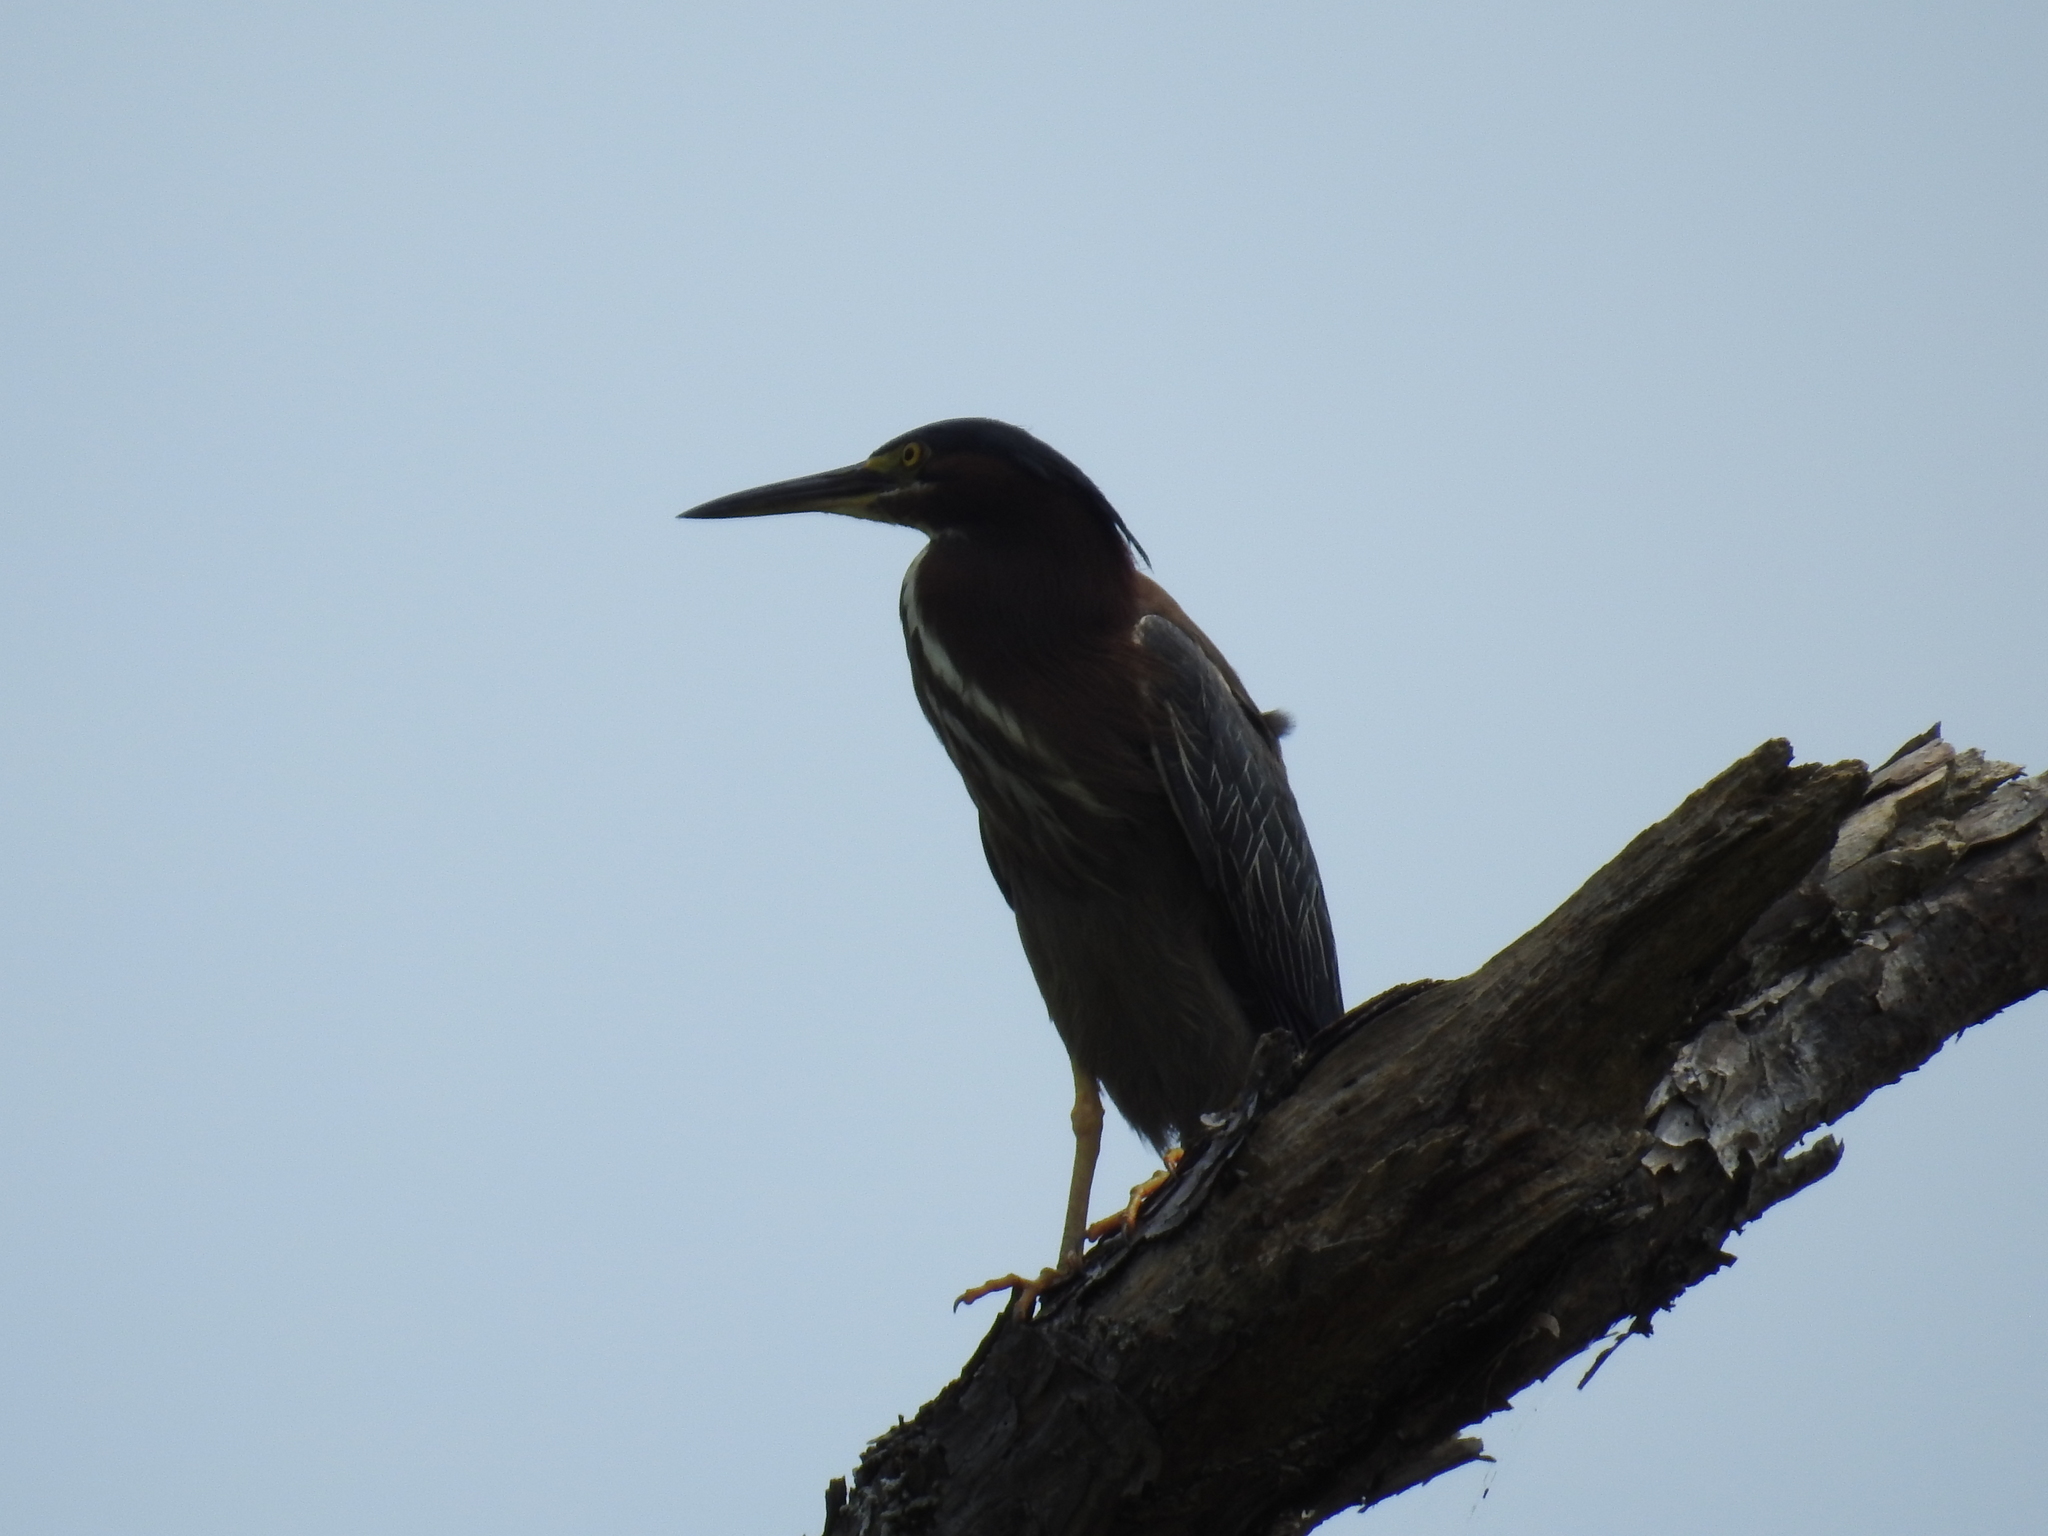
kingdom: Animalia
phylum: Chordata
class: Aves
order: Pelecaniformes
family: Ardeidae
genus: Butorides
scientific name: Butorides virescens
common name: Green heron
